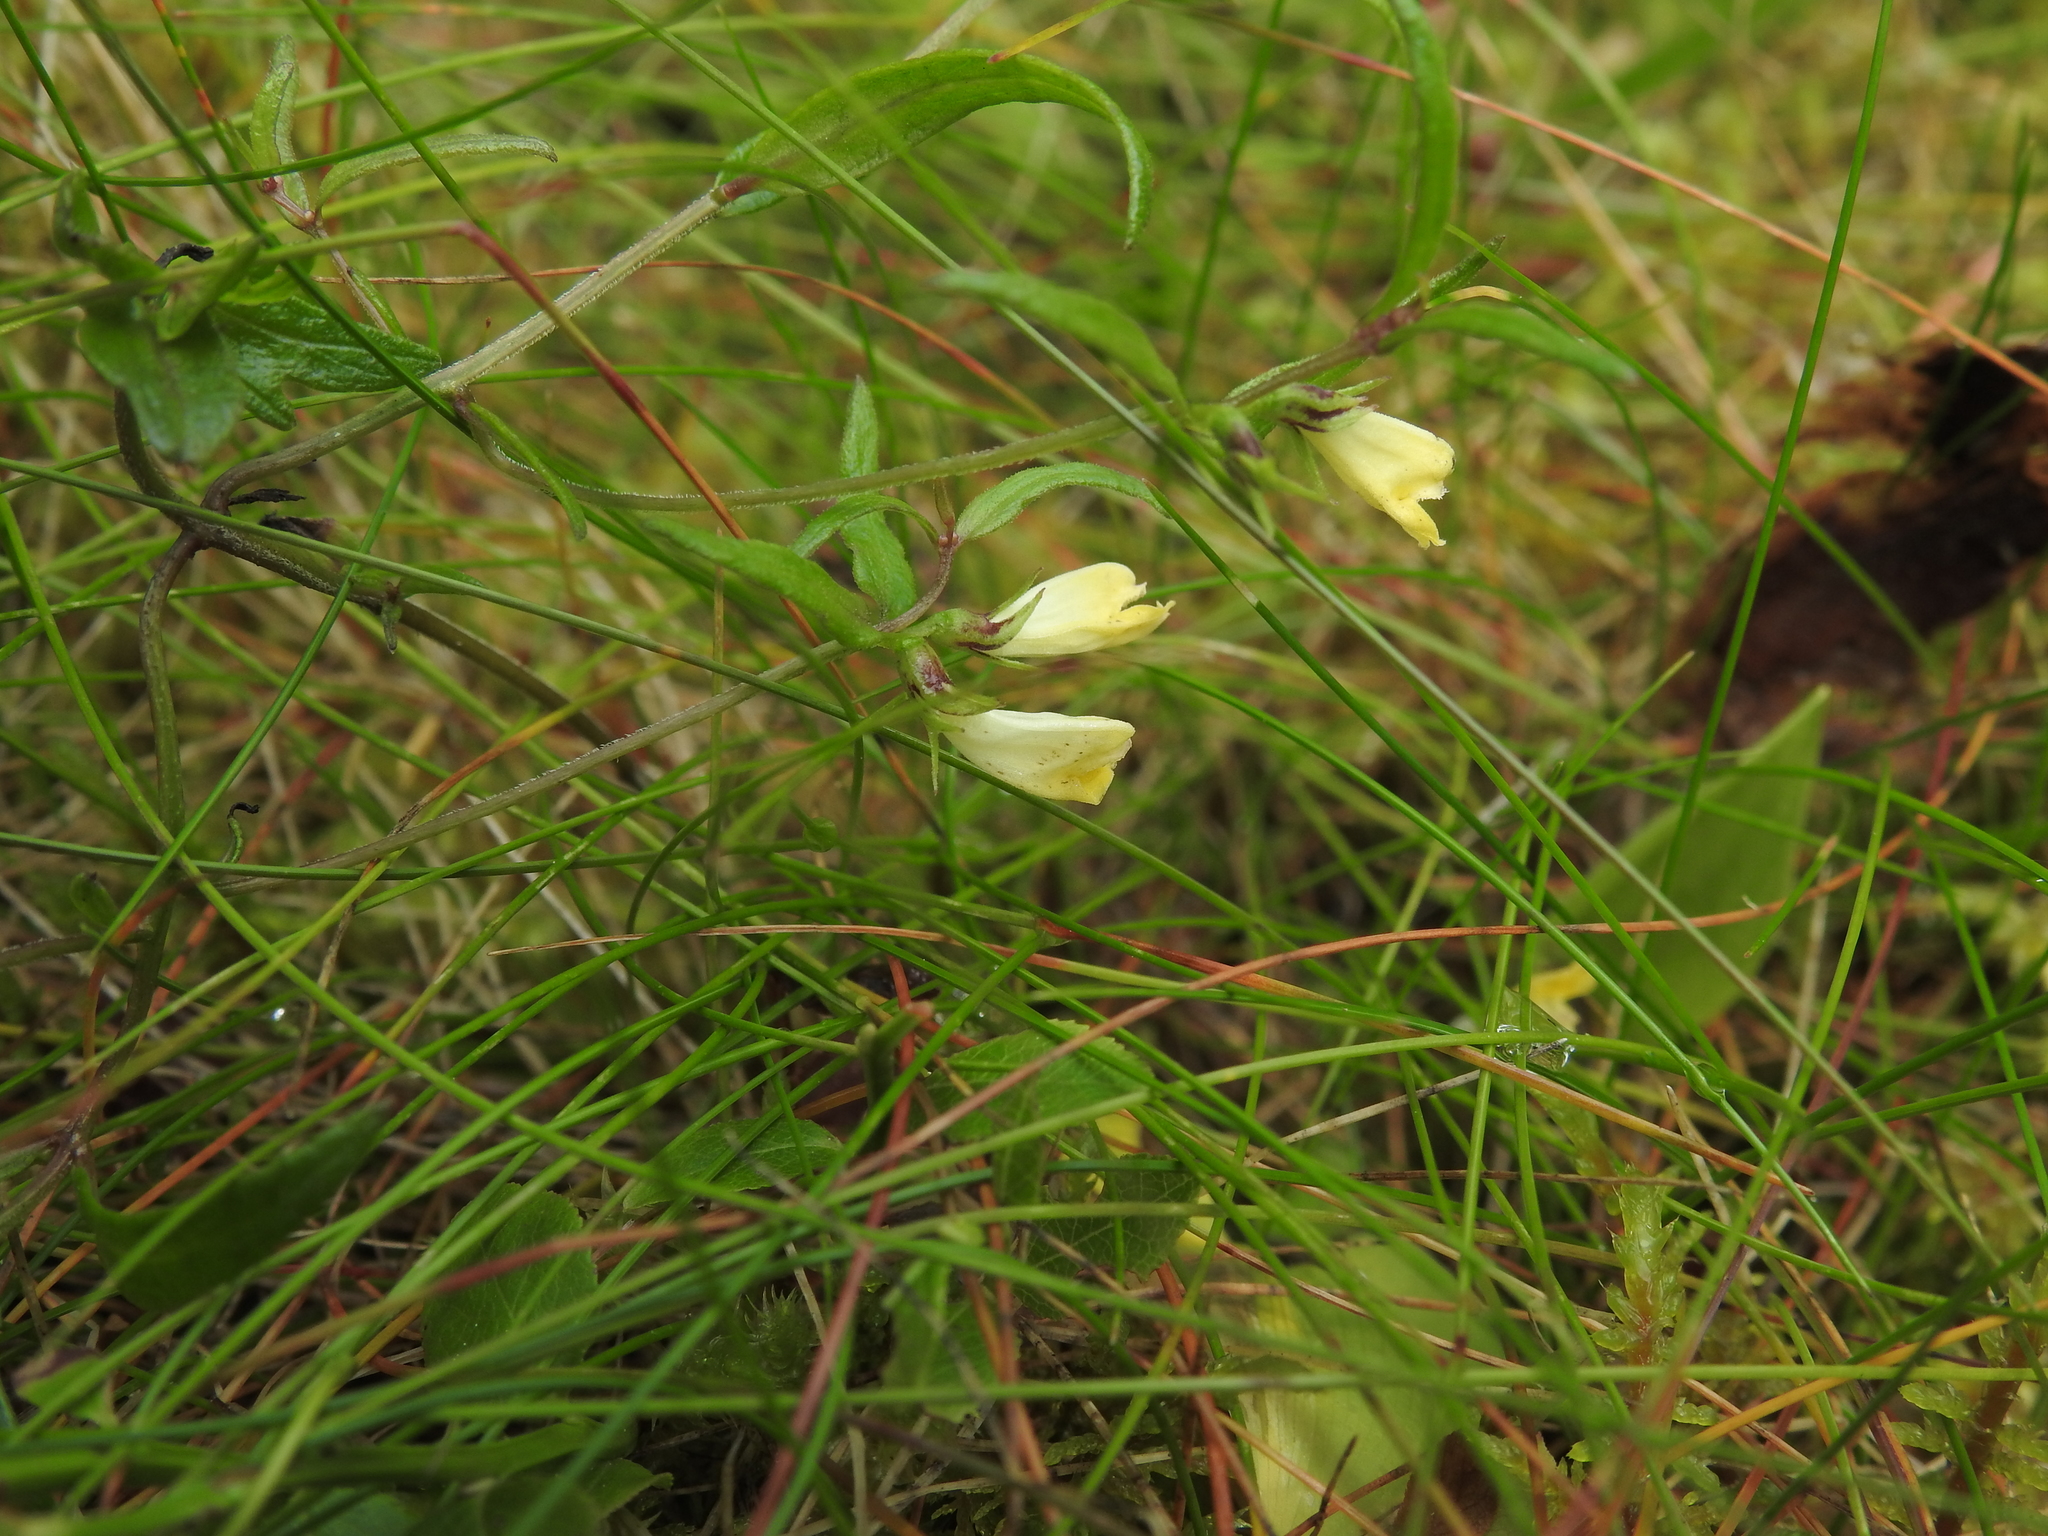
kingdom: Plantae
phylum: Tracheophyta
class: Magnoliopsida
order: Lamiales
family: Orobanchaceae
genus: Melampyrum
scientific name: Melampyrum pratense
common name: Common cow-wheat
